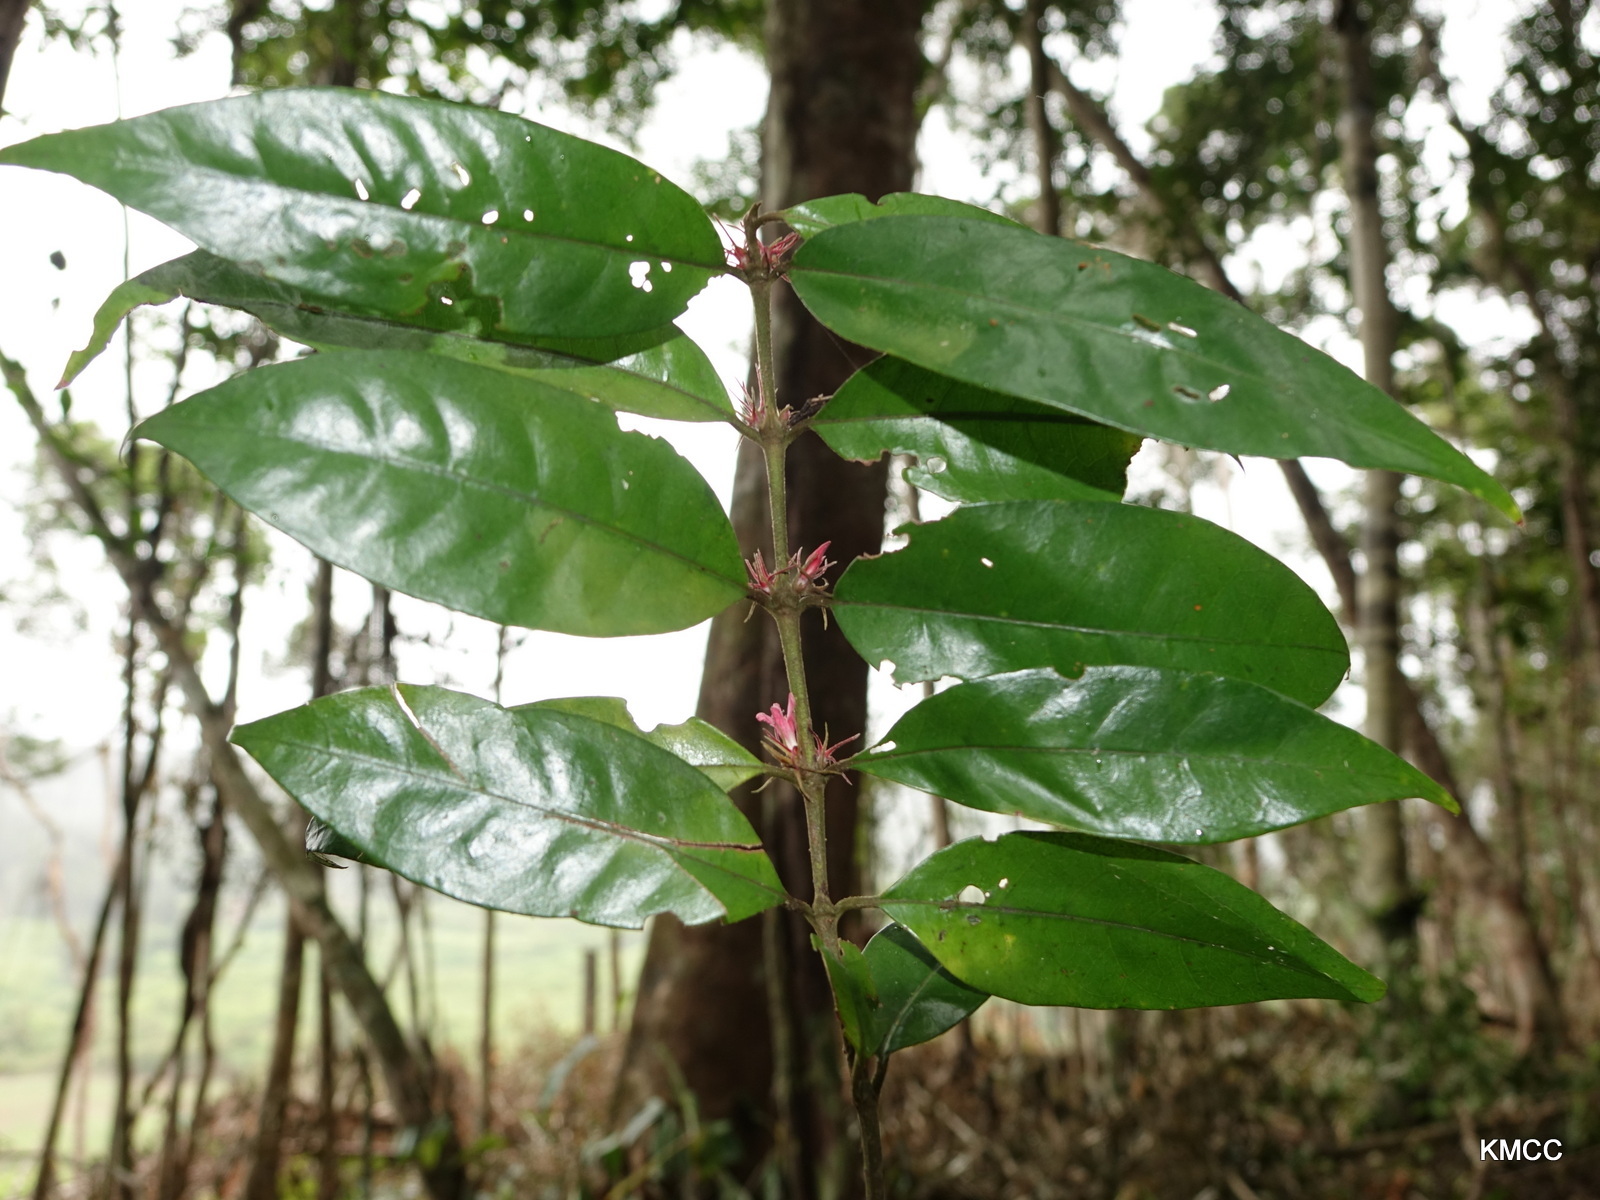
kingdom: Plantae
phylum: Tracheophyta
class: Magnoliopsida
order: Gentianales
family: Rubiaceae
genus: Flagenium
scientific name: Flagenium triflorum
